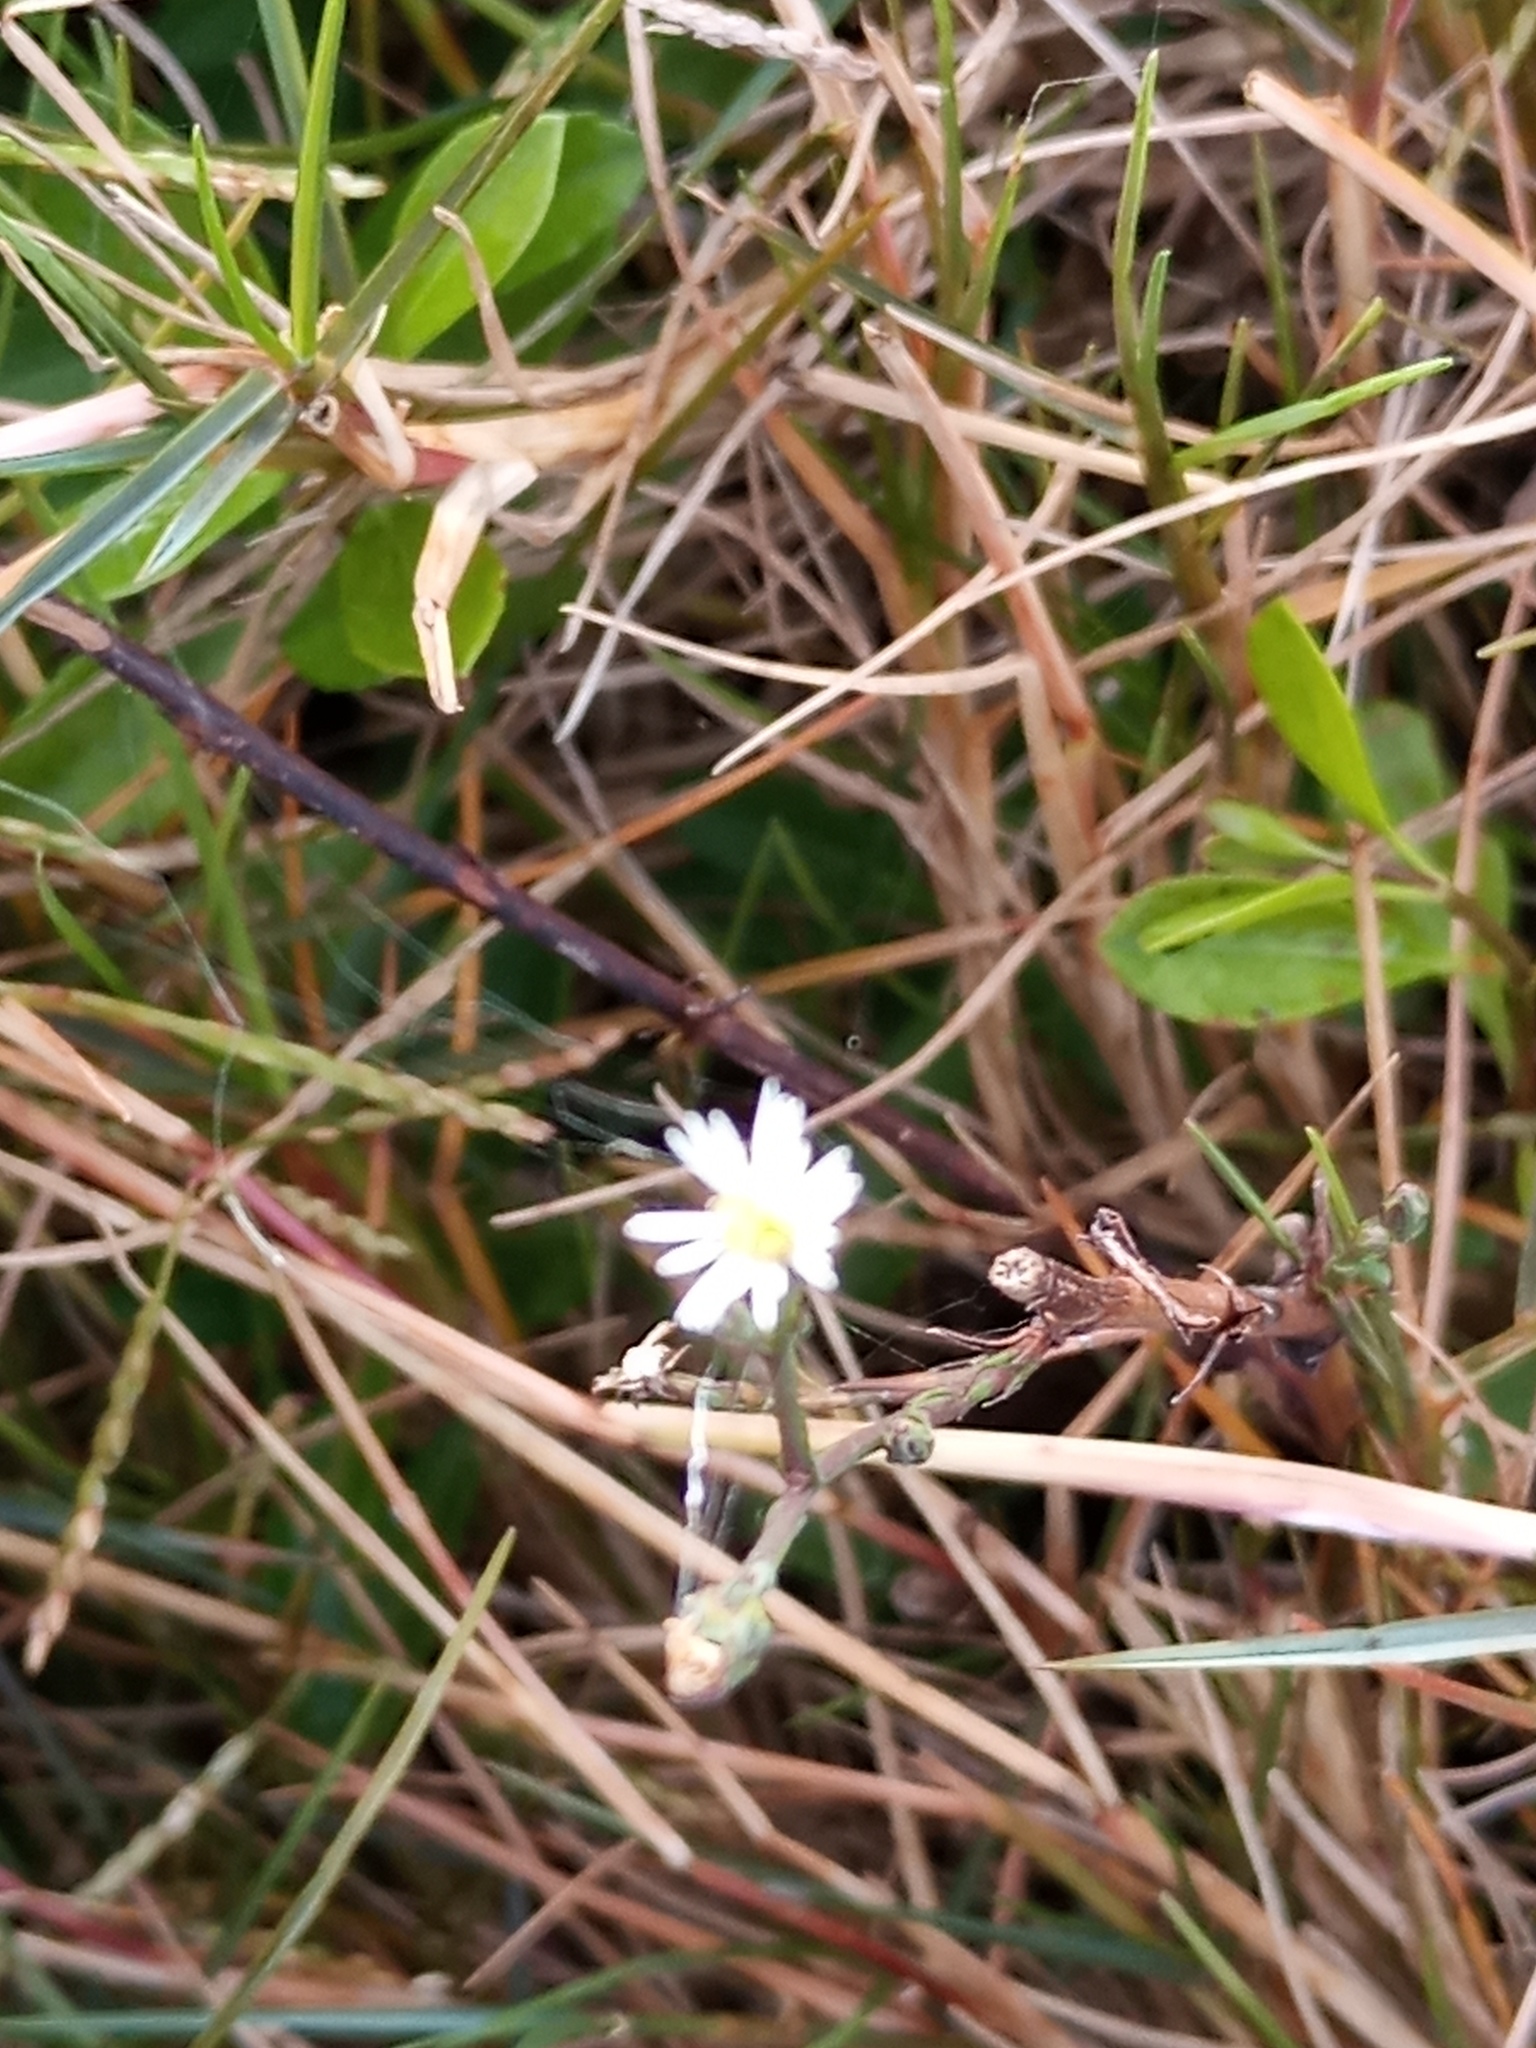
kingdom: Plantae
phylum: Tracheophyta
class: Magnoliopsida
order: Asterales
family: Asteraceae
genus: Symphyotrichum
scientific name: Symphyotrichum squamatum
